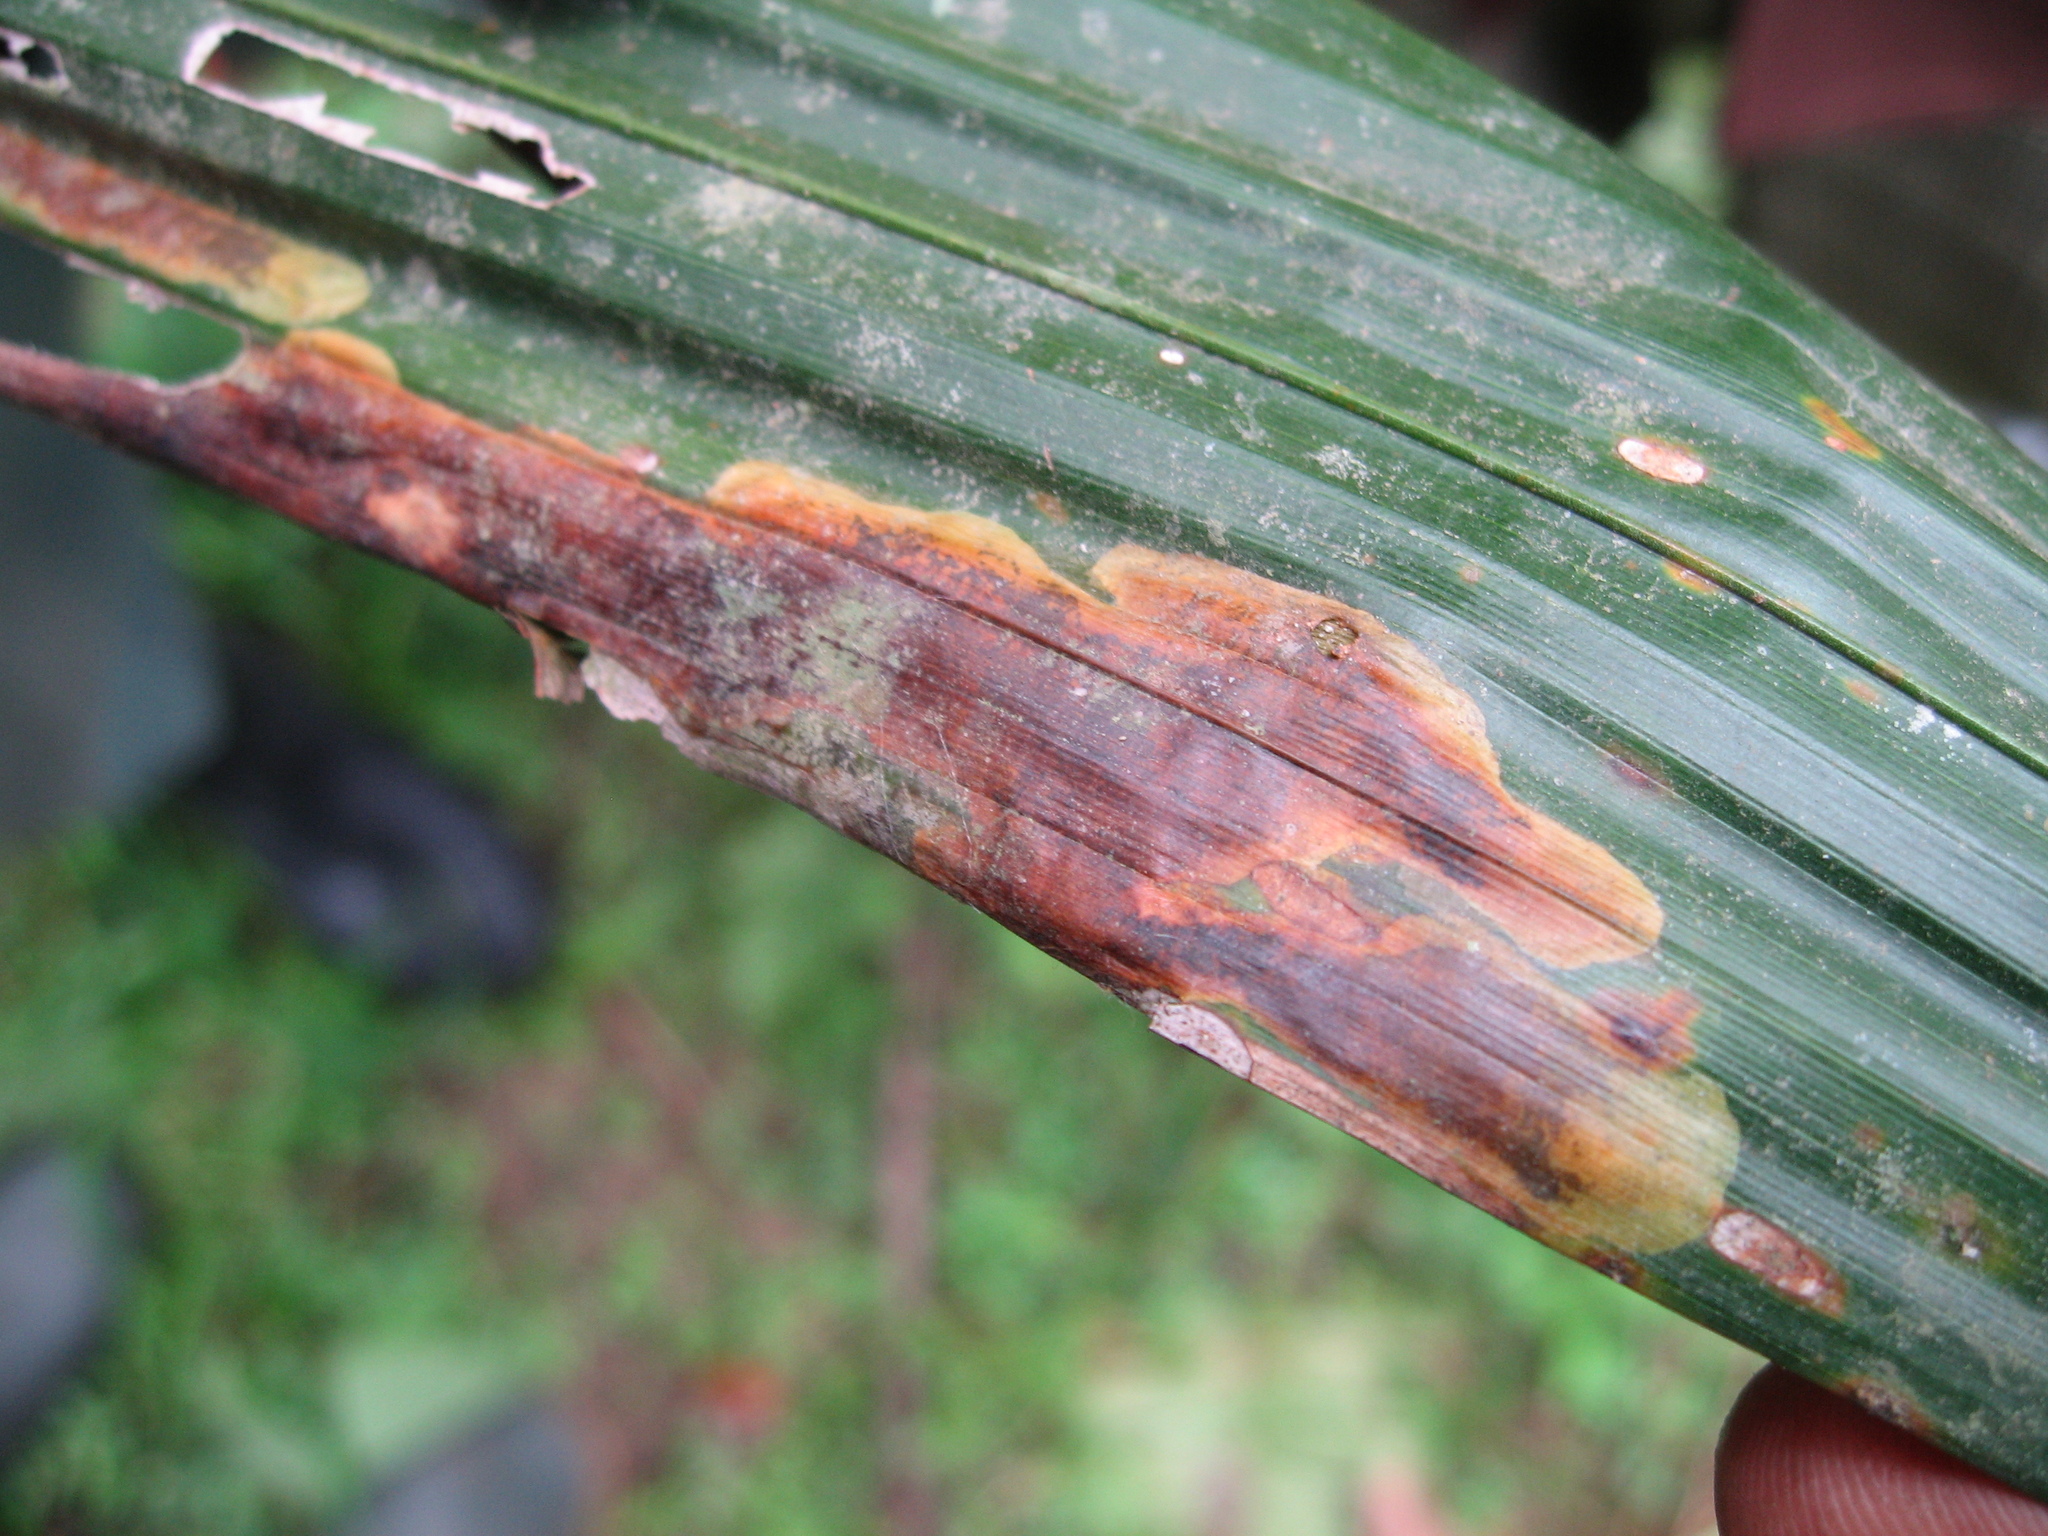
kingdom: Animalia
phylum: Arthropoda
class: Insecta
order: Coleoptera
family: Chrysomelidae
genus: Coelaenomenodera
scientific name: Coelaenomenodera lameensis
